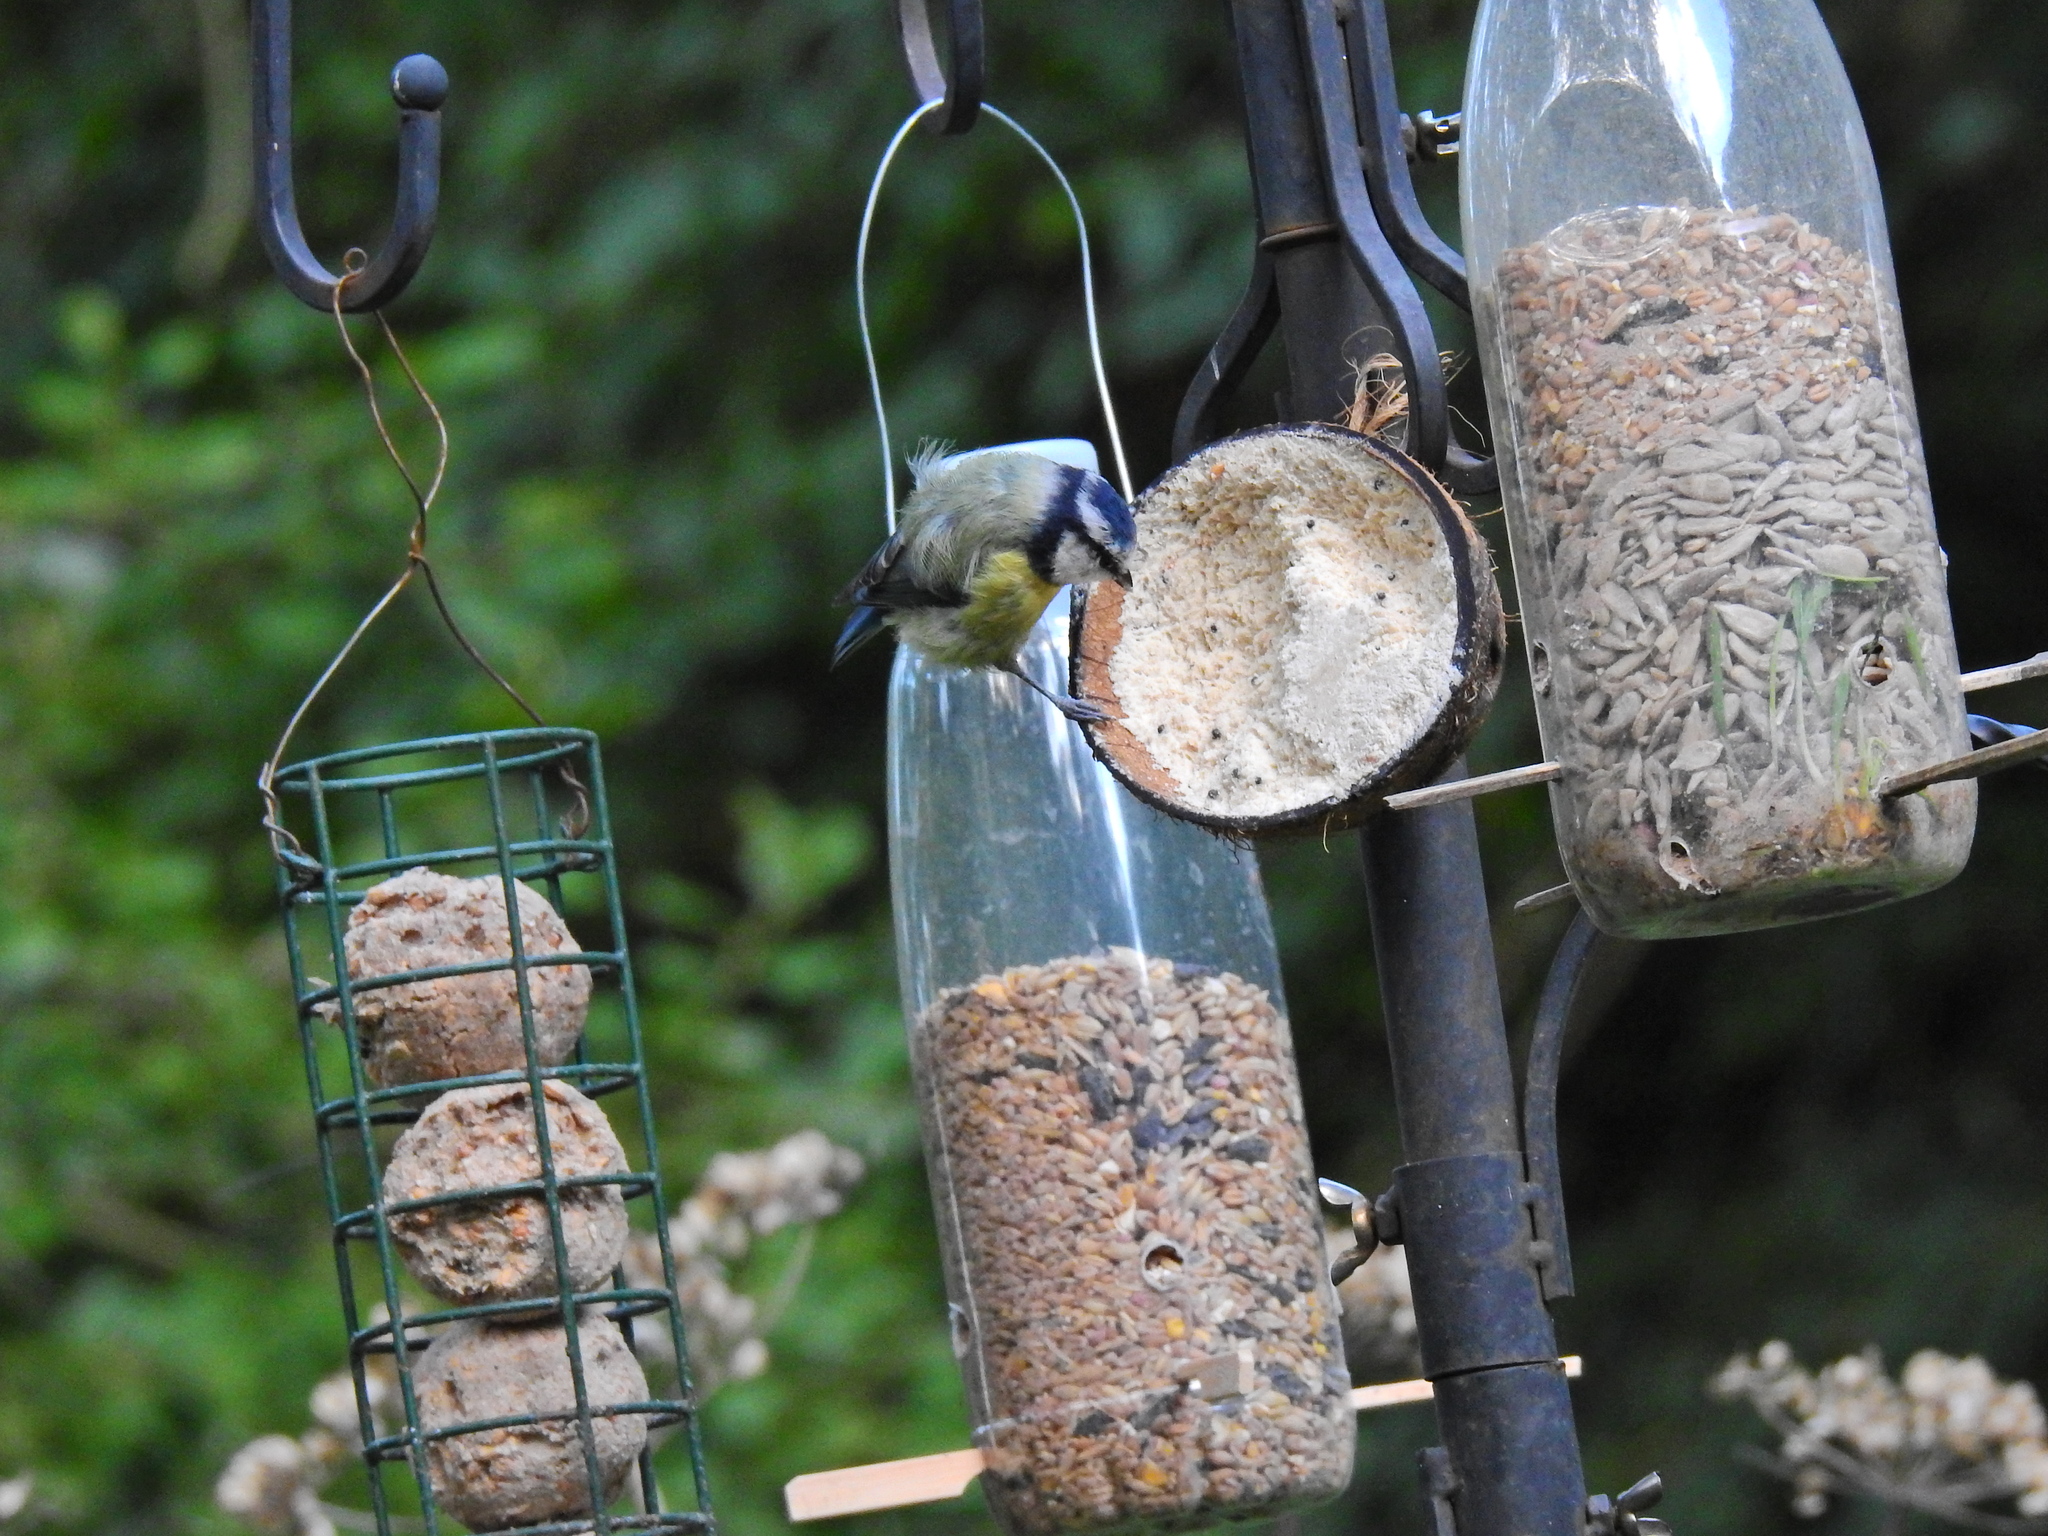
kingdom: Animalia
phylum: Chordata
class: Aves
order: Passeriformes
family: Paridae
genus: Cyanistes
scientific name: Cyanistes caeruleus
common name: Eurasian blue tit
